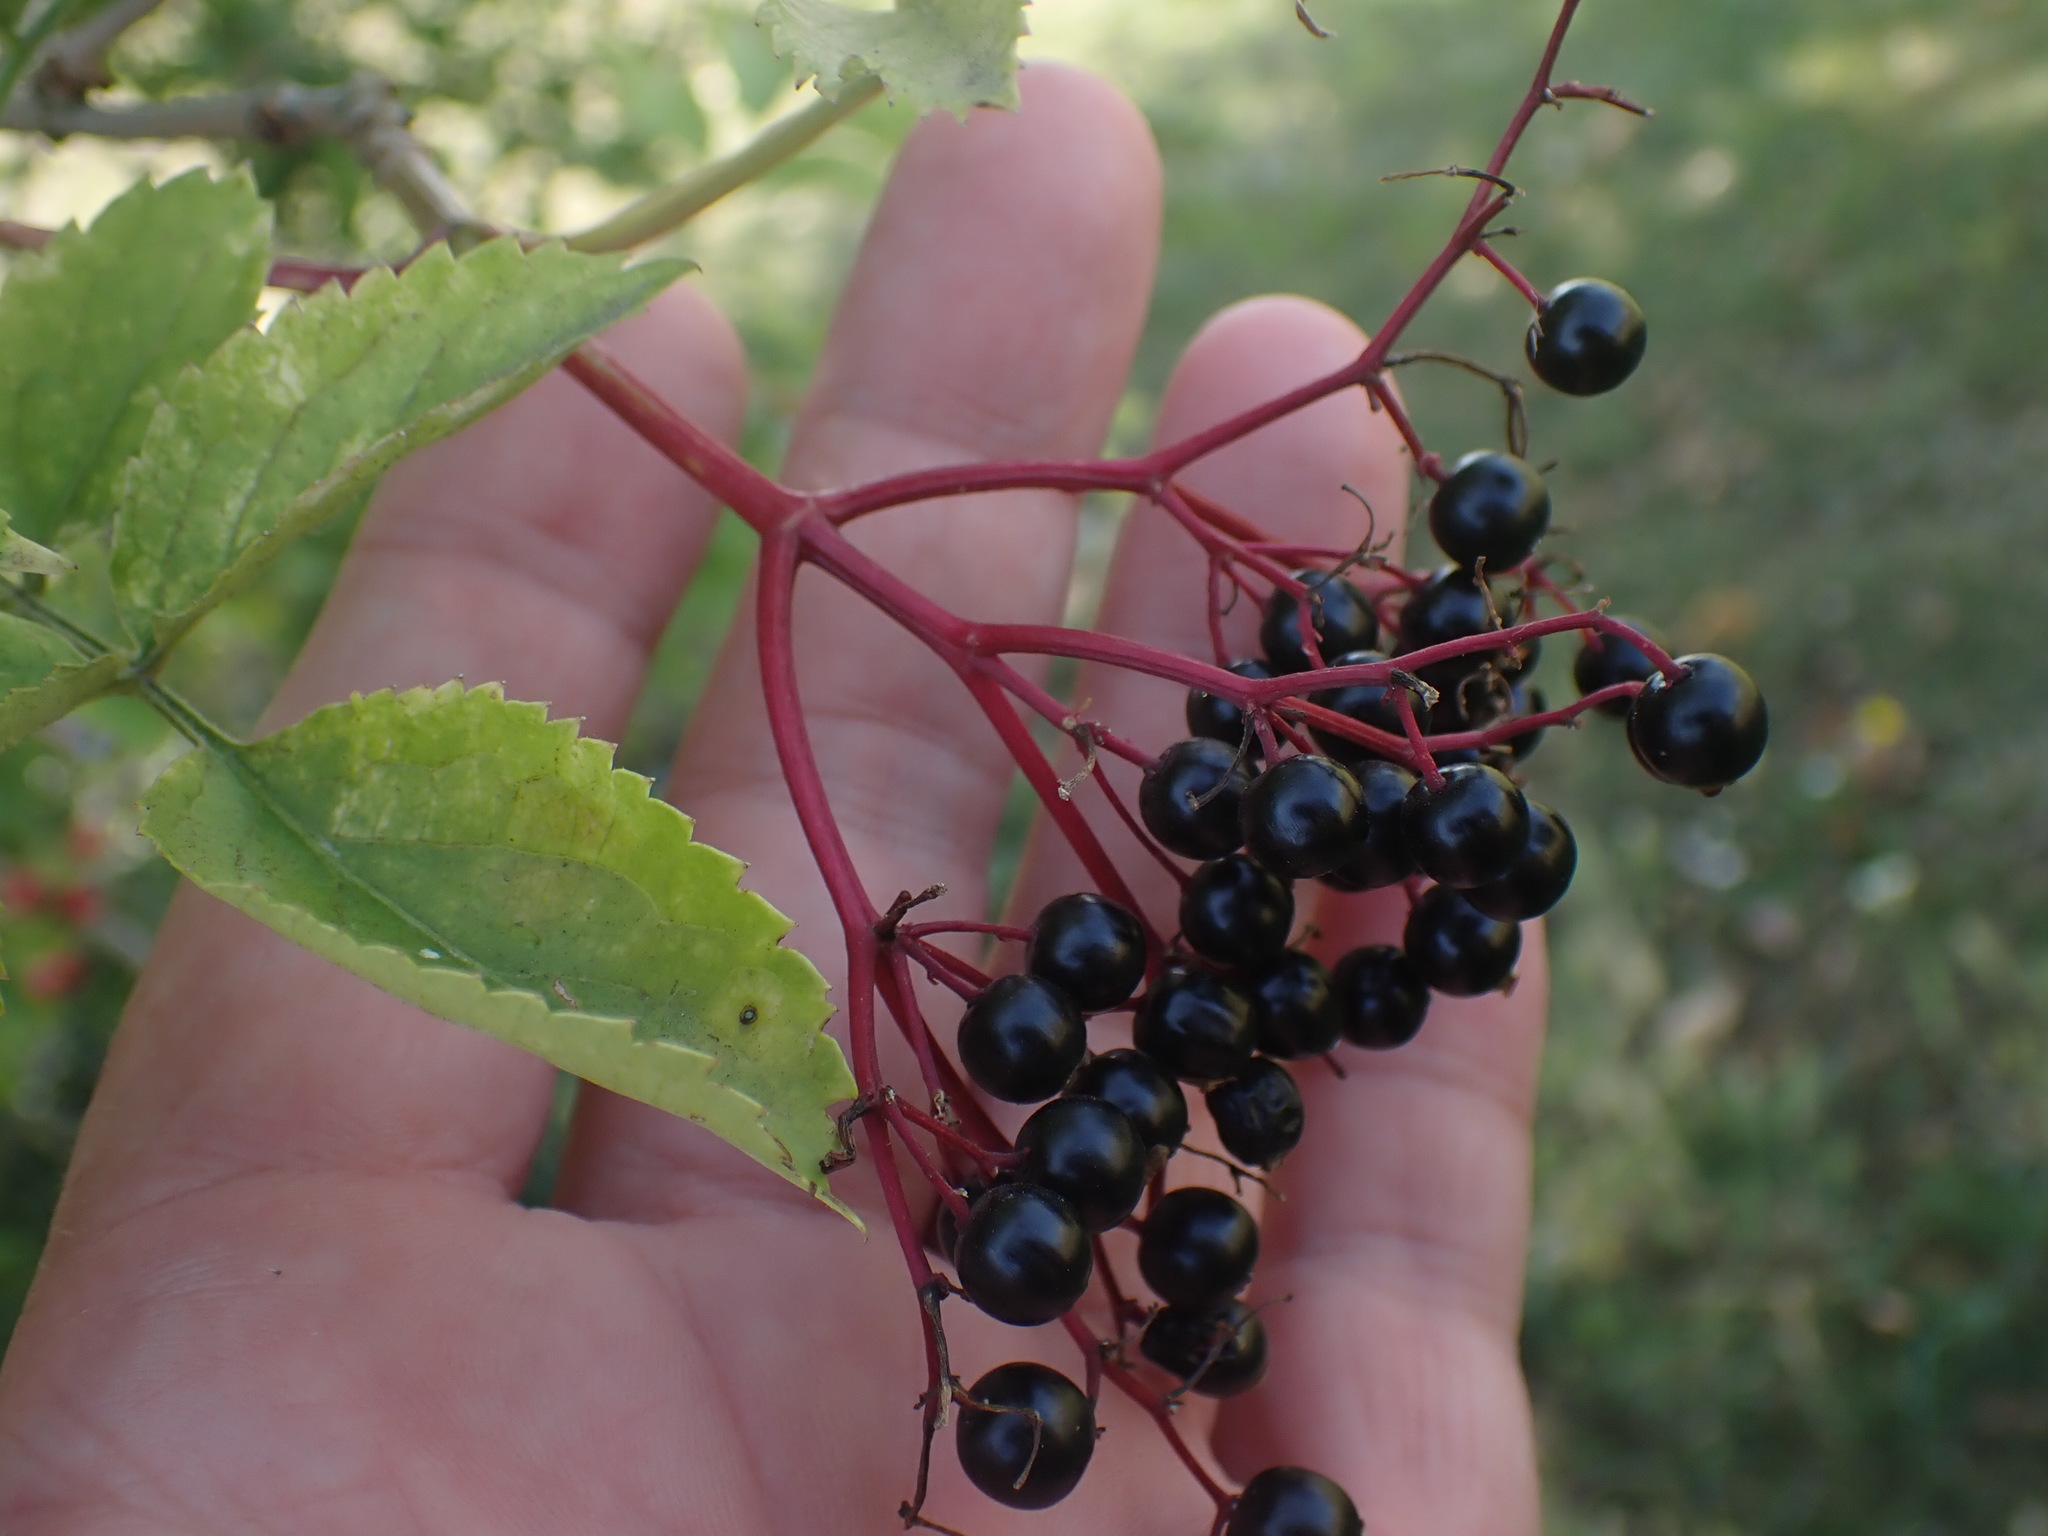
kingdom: Plantae
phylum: Tracheophyta
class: Magnoliopsida
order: Dipsacales
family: Viburnaceae
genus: Sambucus
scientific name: Sambucus nigra
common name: Elder
